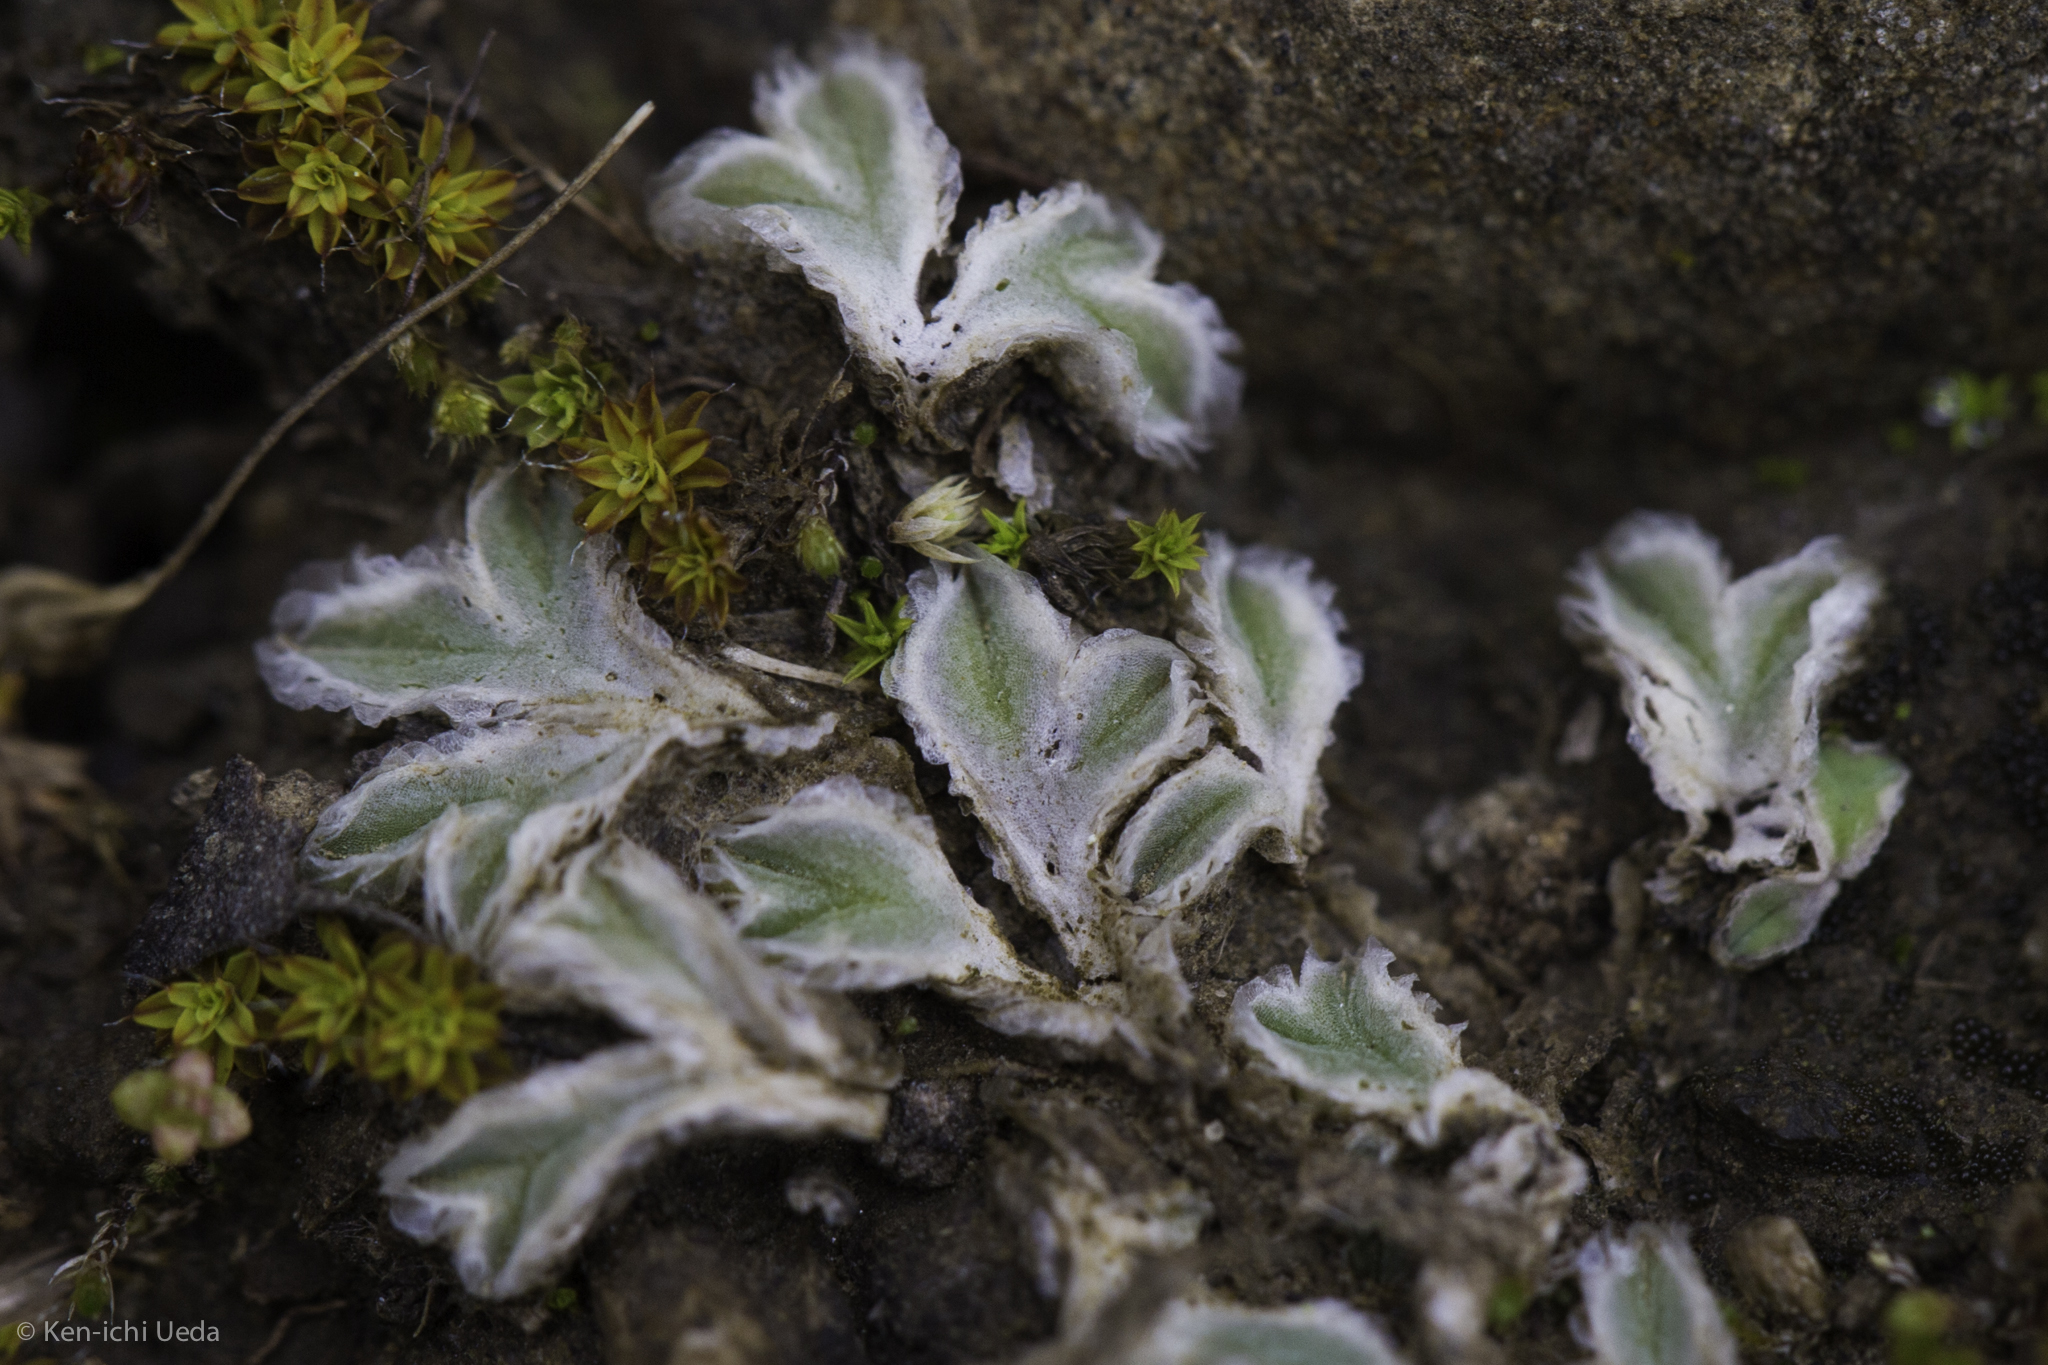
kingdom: Plantae
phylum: Marchantiophyta
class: Marchantiopsida
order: Marchantiales
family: Ricciaceae
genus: Riccia
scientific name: Riccia lamellosa
